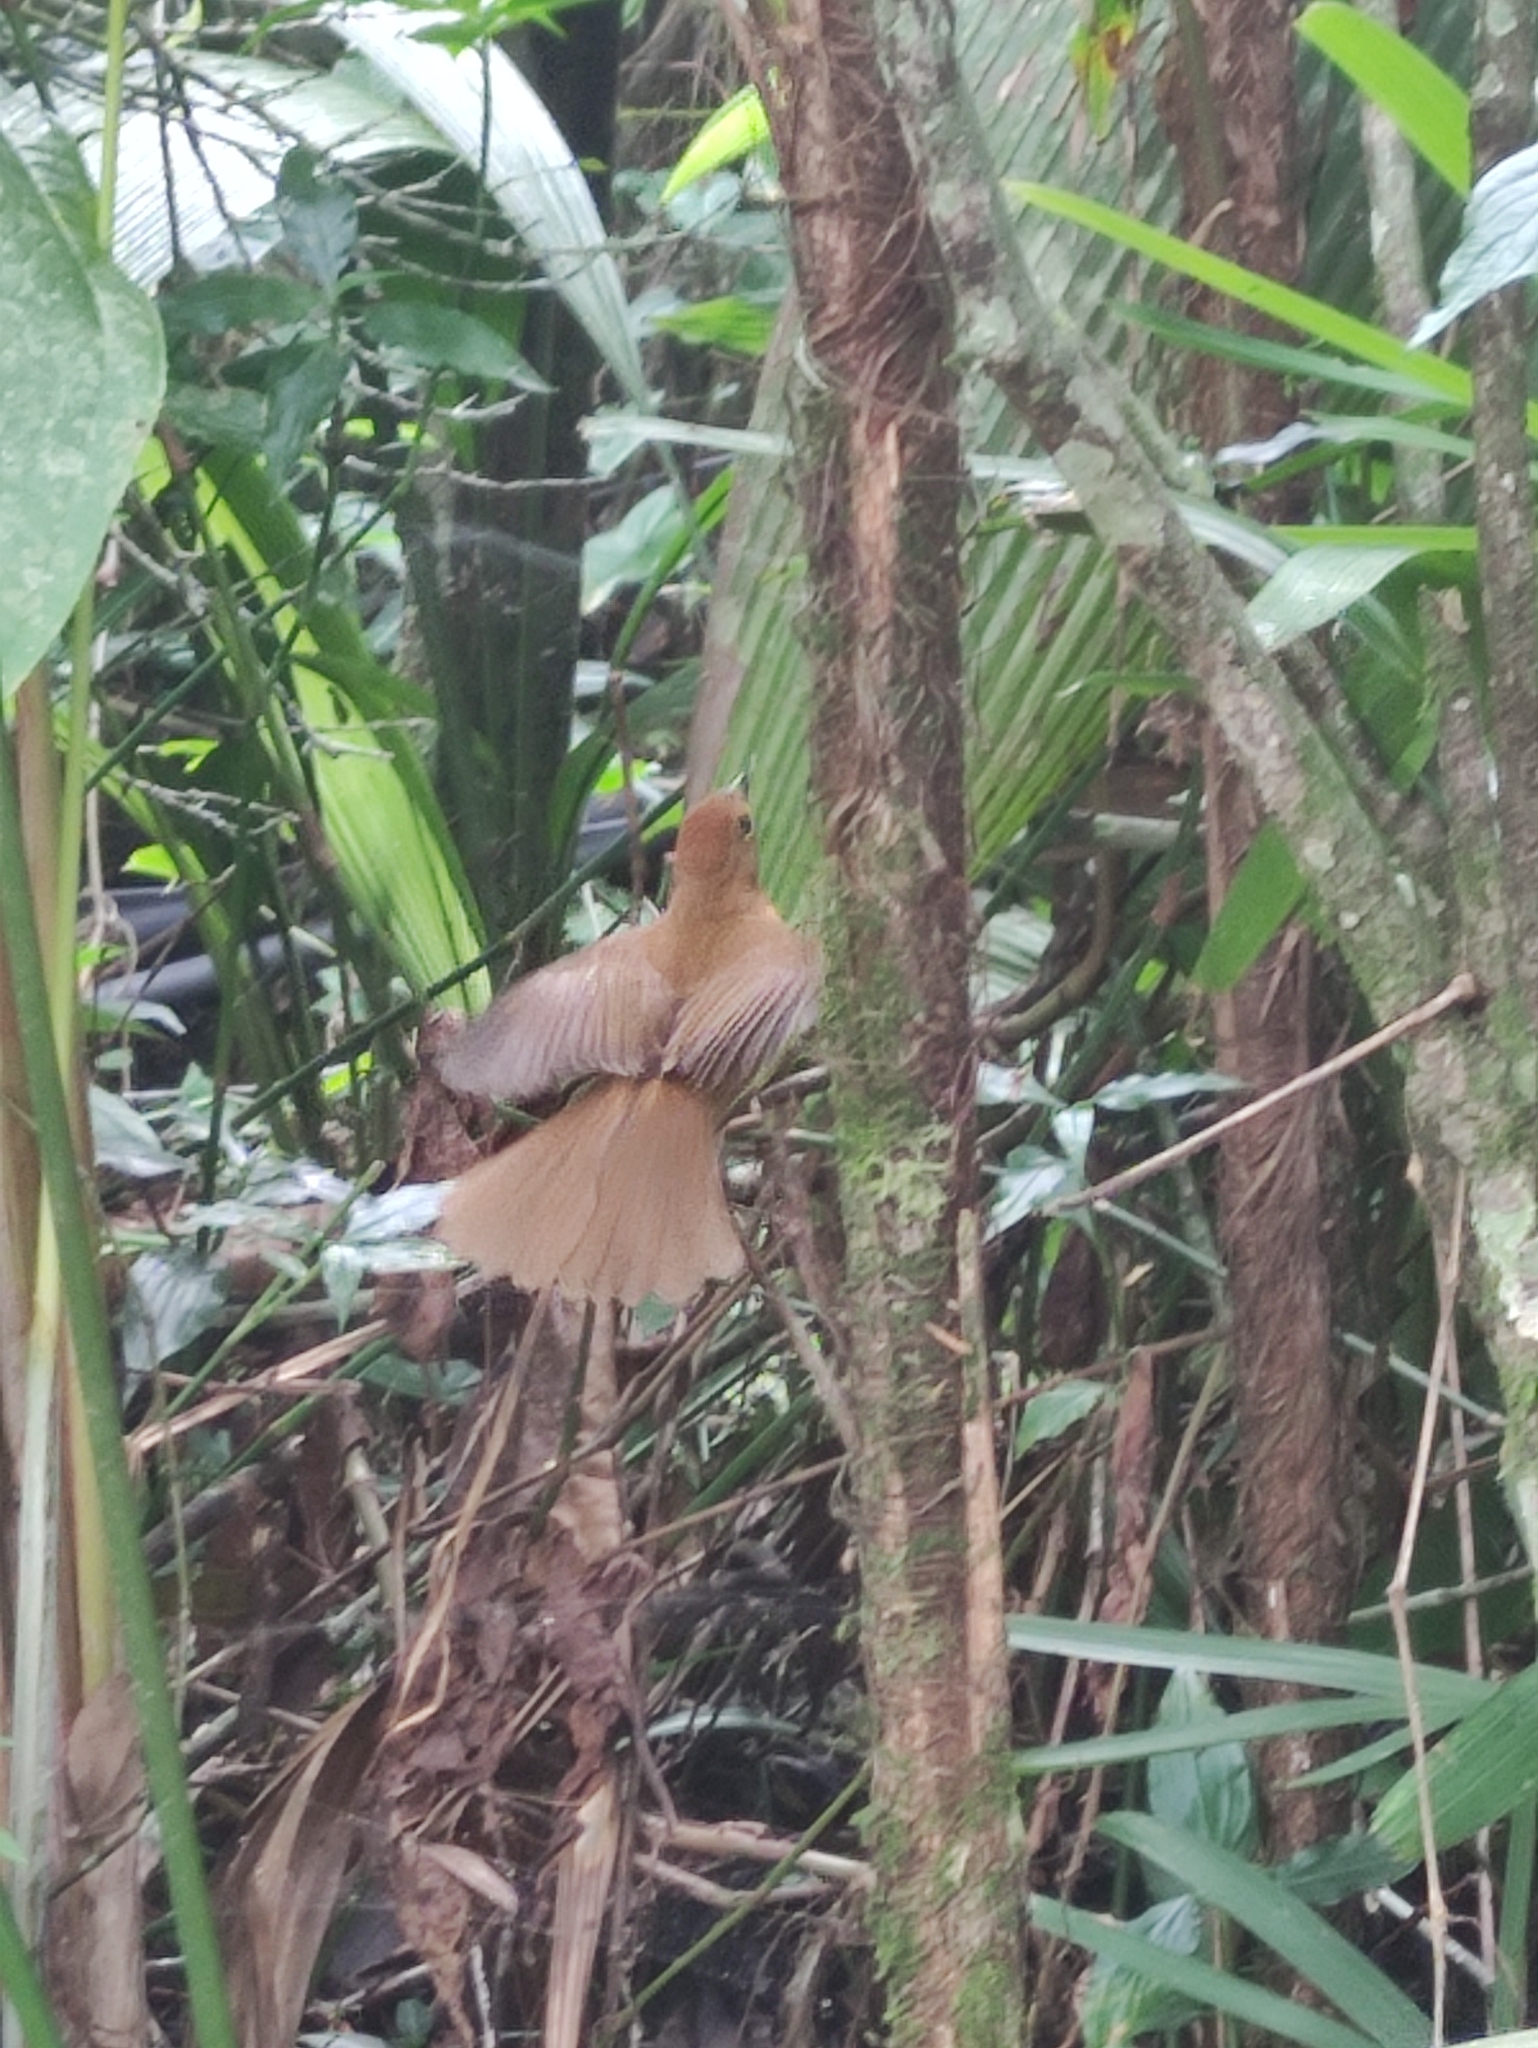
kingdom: Animalia
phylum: Chordata
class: Aves
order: Passeriformes
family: Thraupidae
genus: Loriotus
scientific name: Loriotus cristatus
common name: Flame-crested tanager
